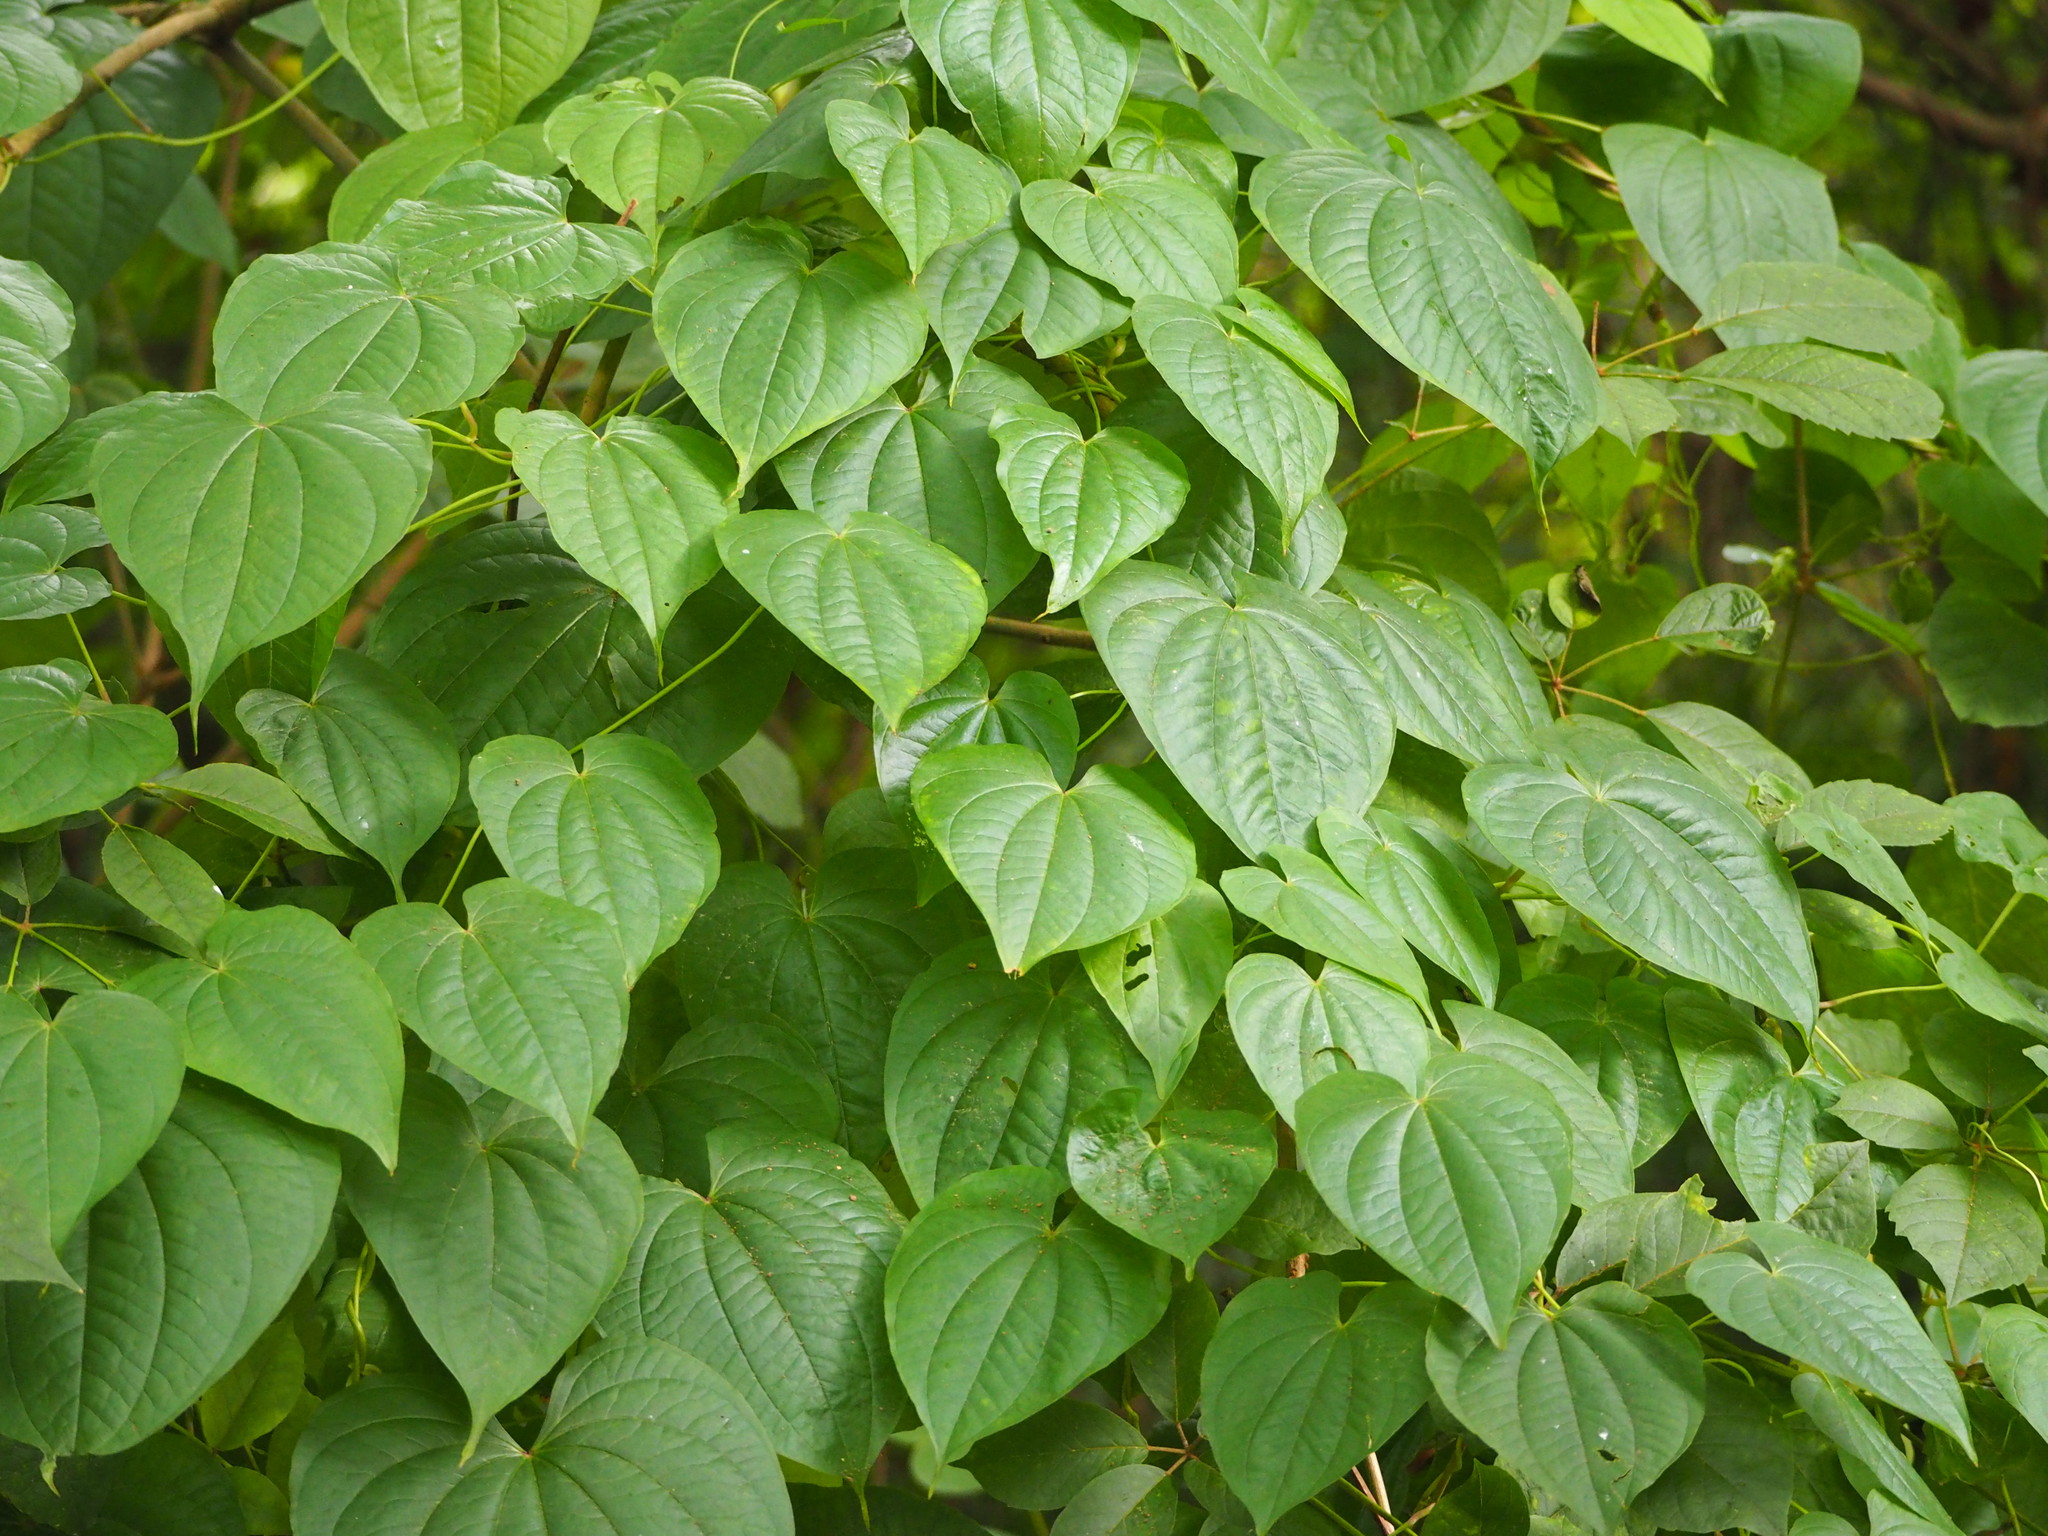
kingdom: Plantae
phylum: Tracheophyta
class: Liliopsida
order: Dioscoreales
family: Dioscoreaceae
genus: Dioscorea
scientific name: Dioscorea bulbifera
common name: Air yam
